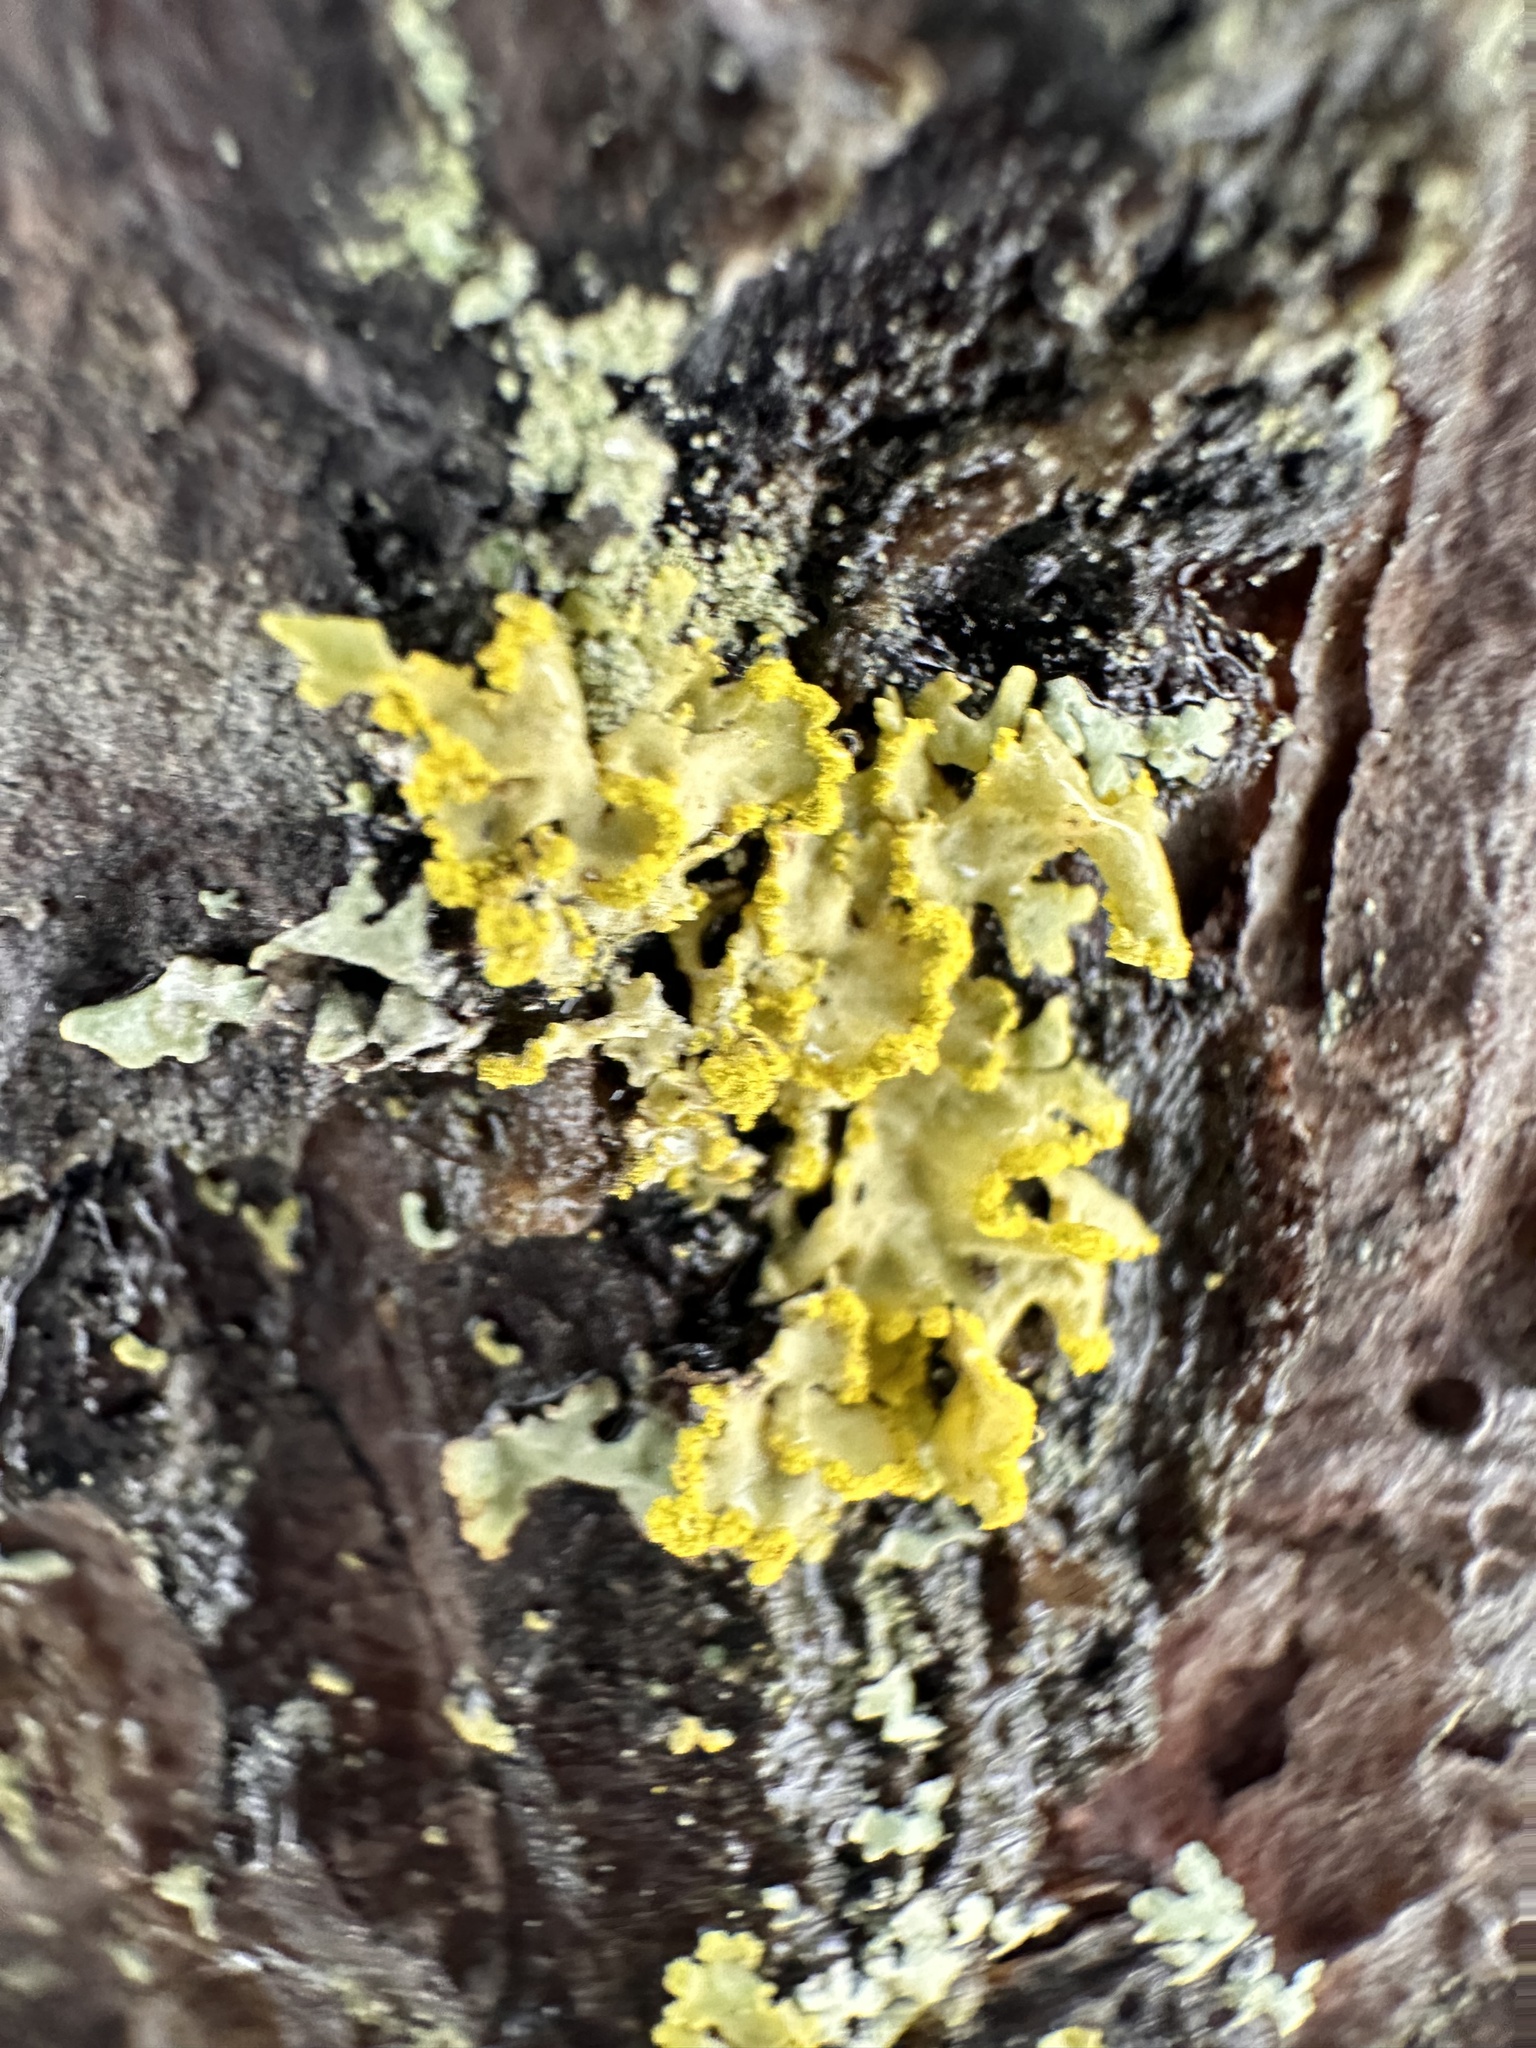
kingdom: Fungi
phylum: Ascomycota
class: Lecanoromycetes
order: Lecanorales
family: Parmeliaceae
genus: Vulpicida
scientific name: Vulpicida pinastri
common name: Powdered sunshine lichen
